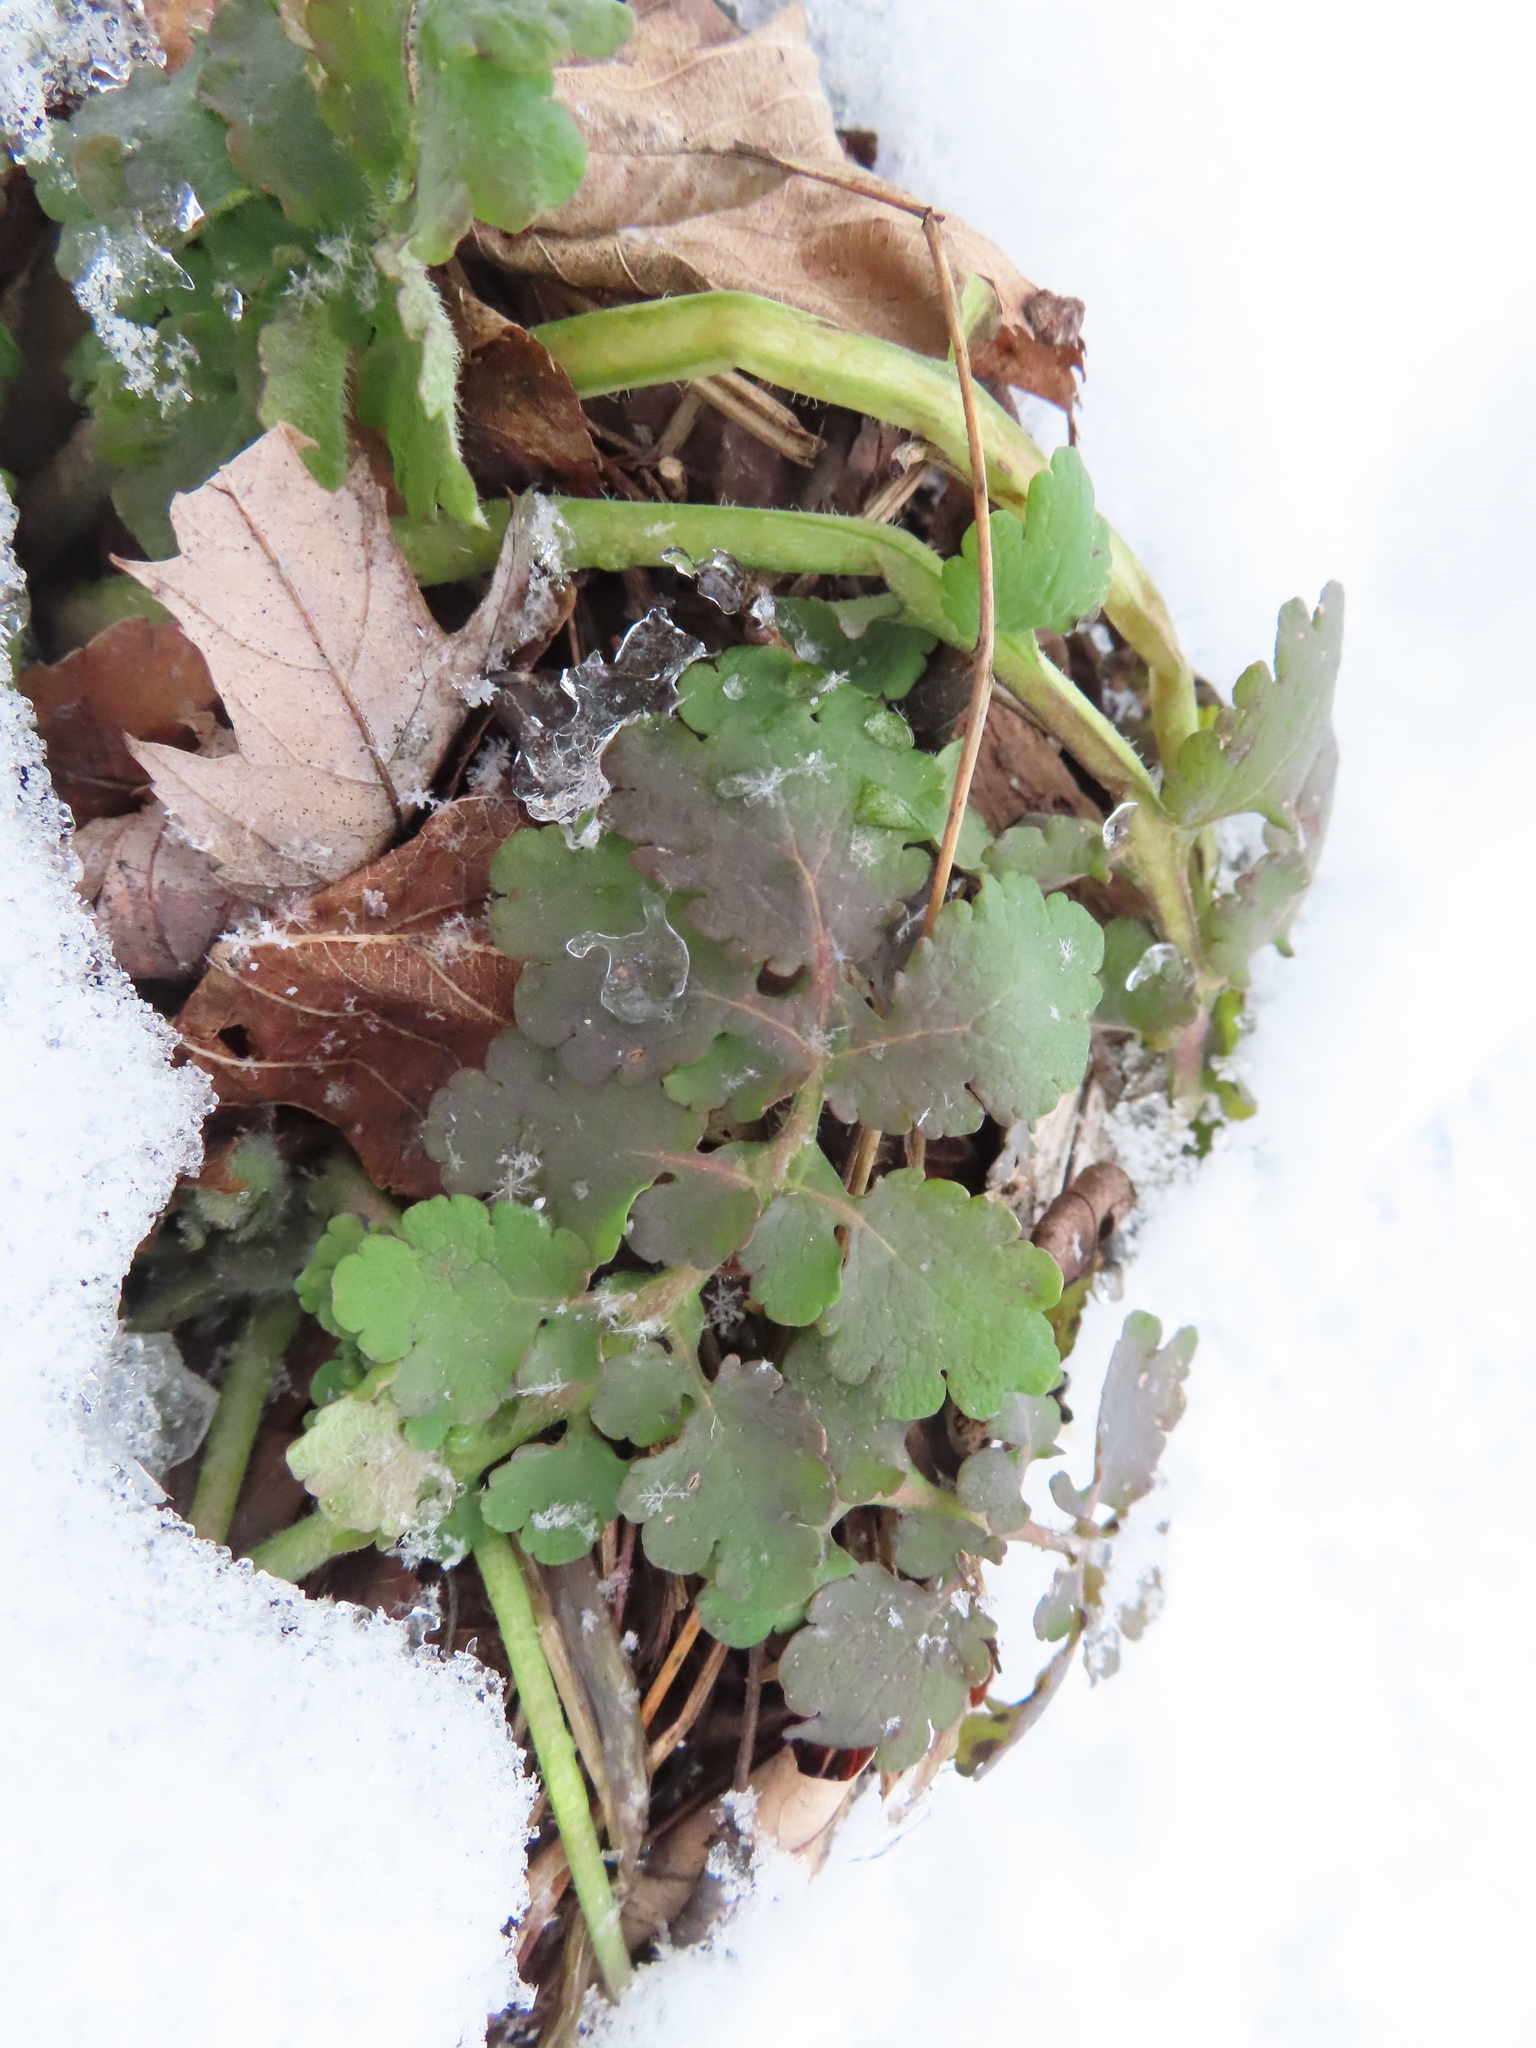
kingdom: Plantae
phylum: Tracheophyta
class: Magnoliopsida
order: Ranunculales
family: Papaveraceae
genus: Chelidonium
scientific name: Chelidonium majus
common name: Greater celandine
